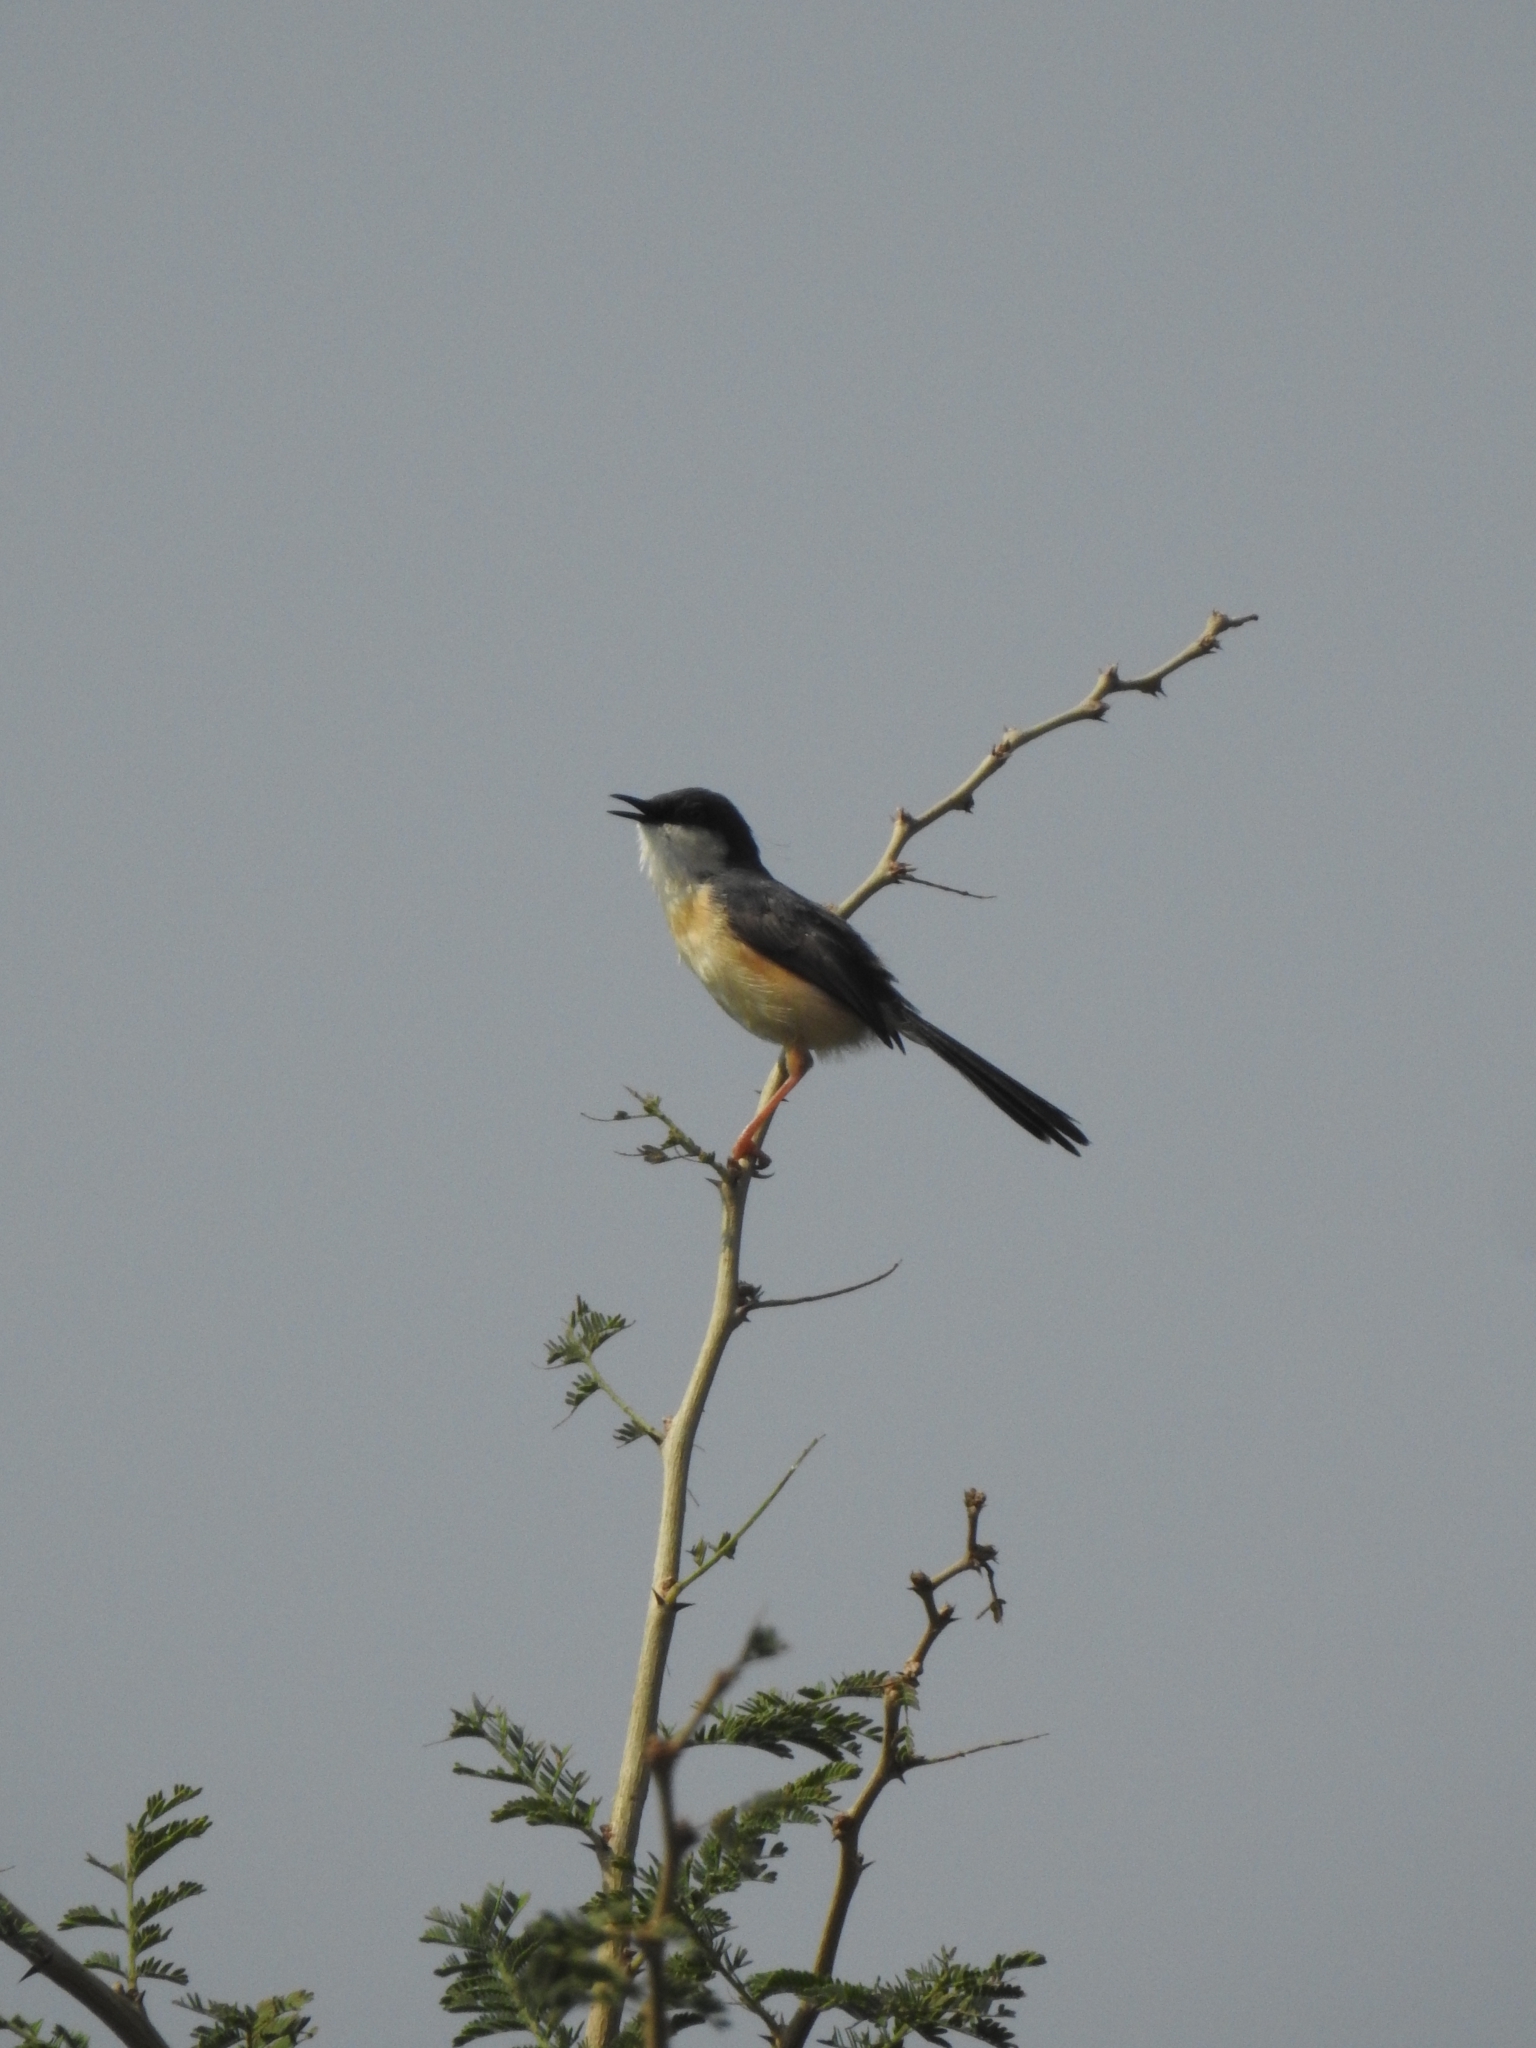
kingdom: Animalia
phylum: Chordata
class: Aves
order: Passeriformes
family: Cisticolidae
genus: Prinia
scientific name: Prinia socialis
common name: Ashy prinia
